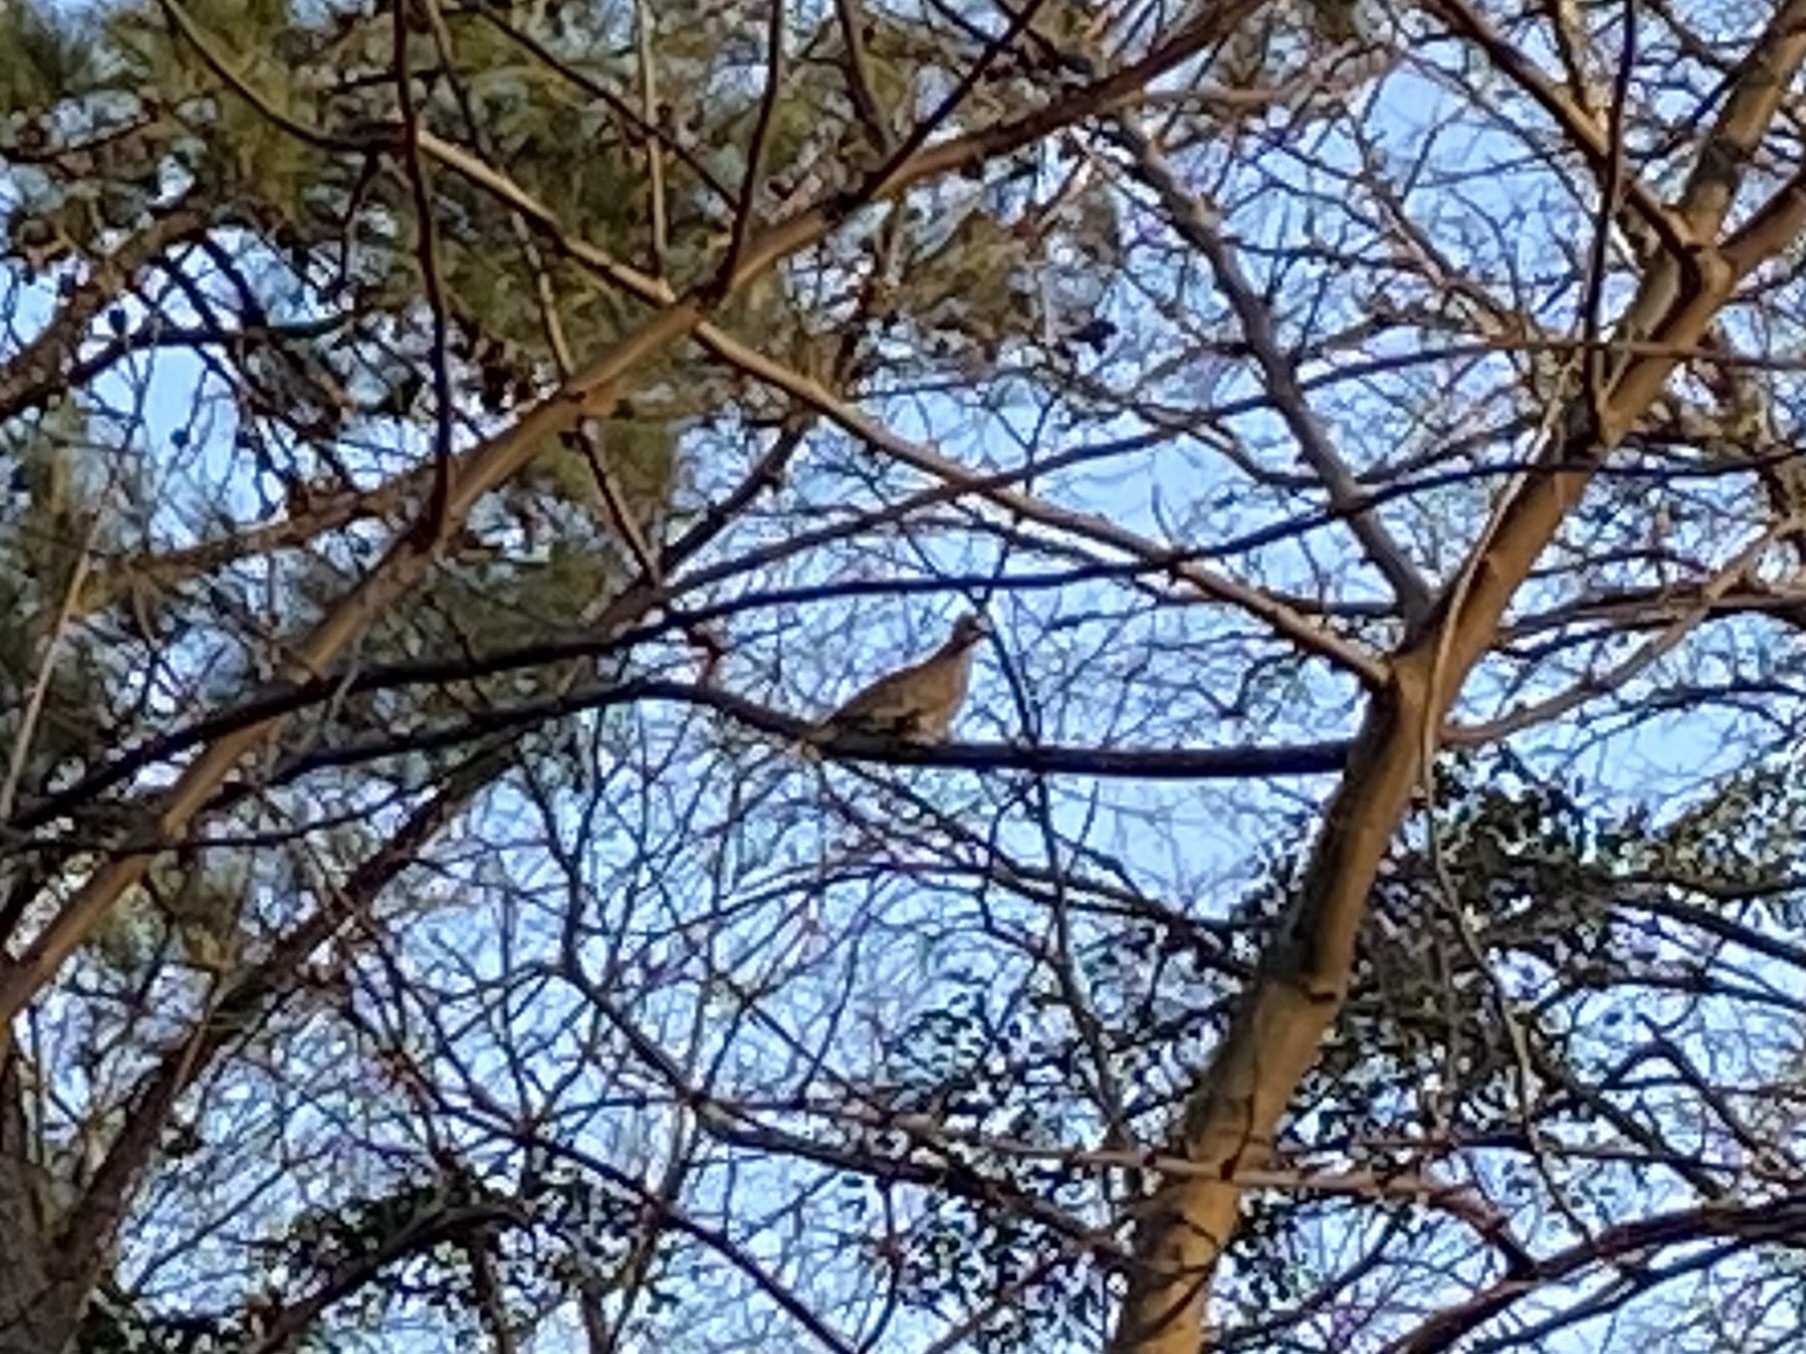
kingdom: Animalia
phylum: Chordata
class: Aves
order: Columbiformes
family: Columbidae
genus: Zenaida
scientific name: Zenaida macroura
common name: Mourning dove
